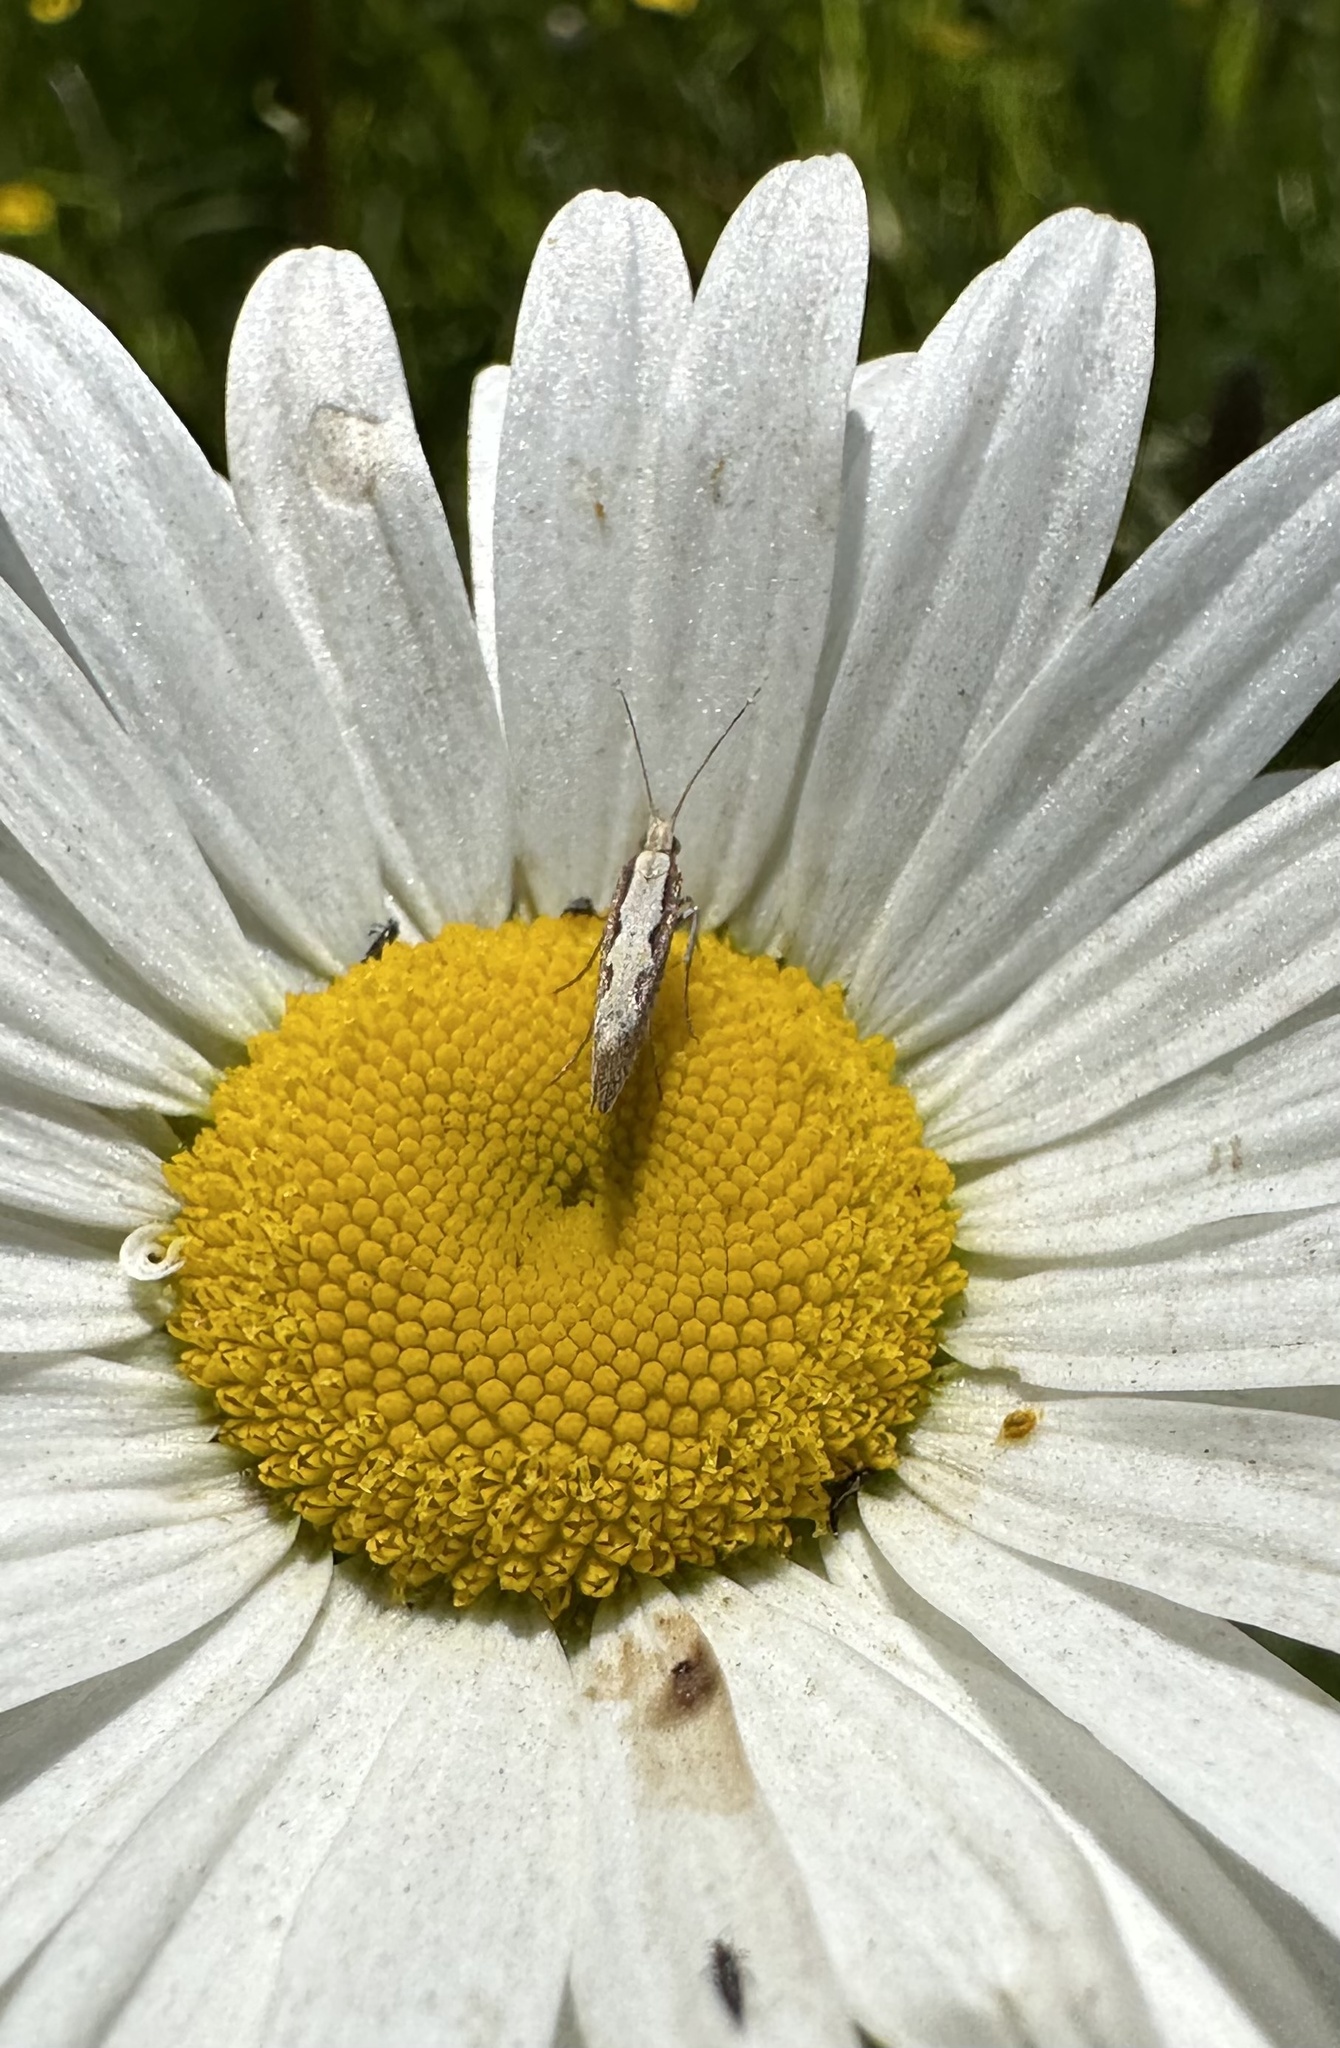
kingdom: Animalia
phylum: Arthropoda
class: Insecta
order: Lepidoptera
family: Plutellidae
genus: Plutella
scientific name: Plutella xylostella
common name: Diamond-back moth
